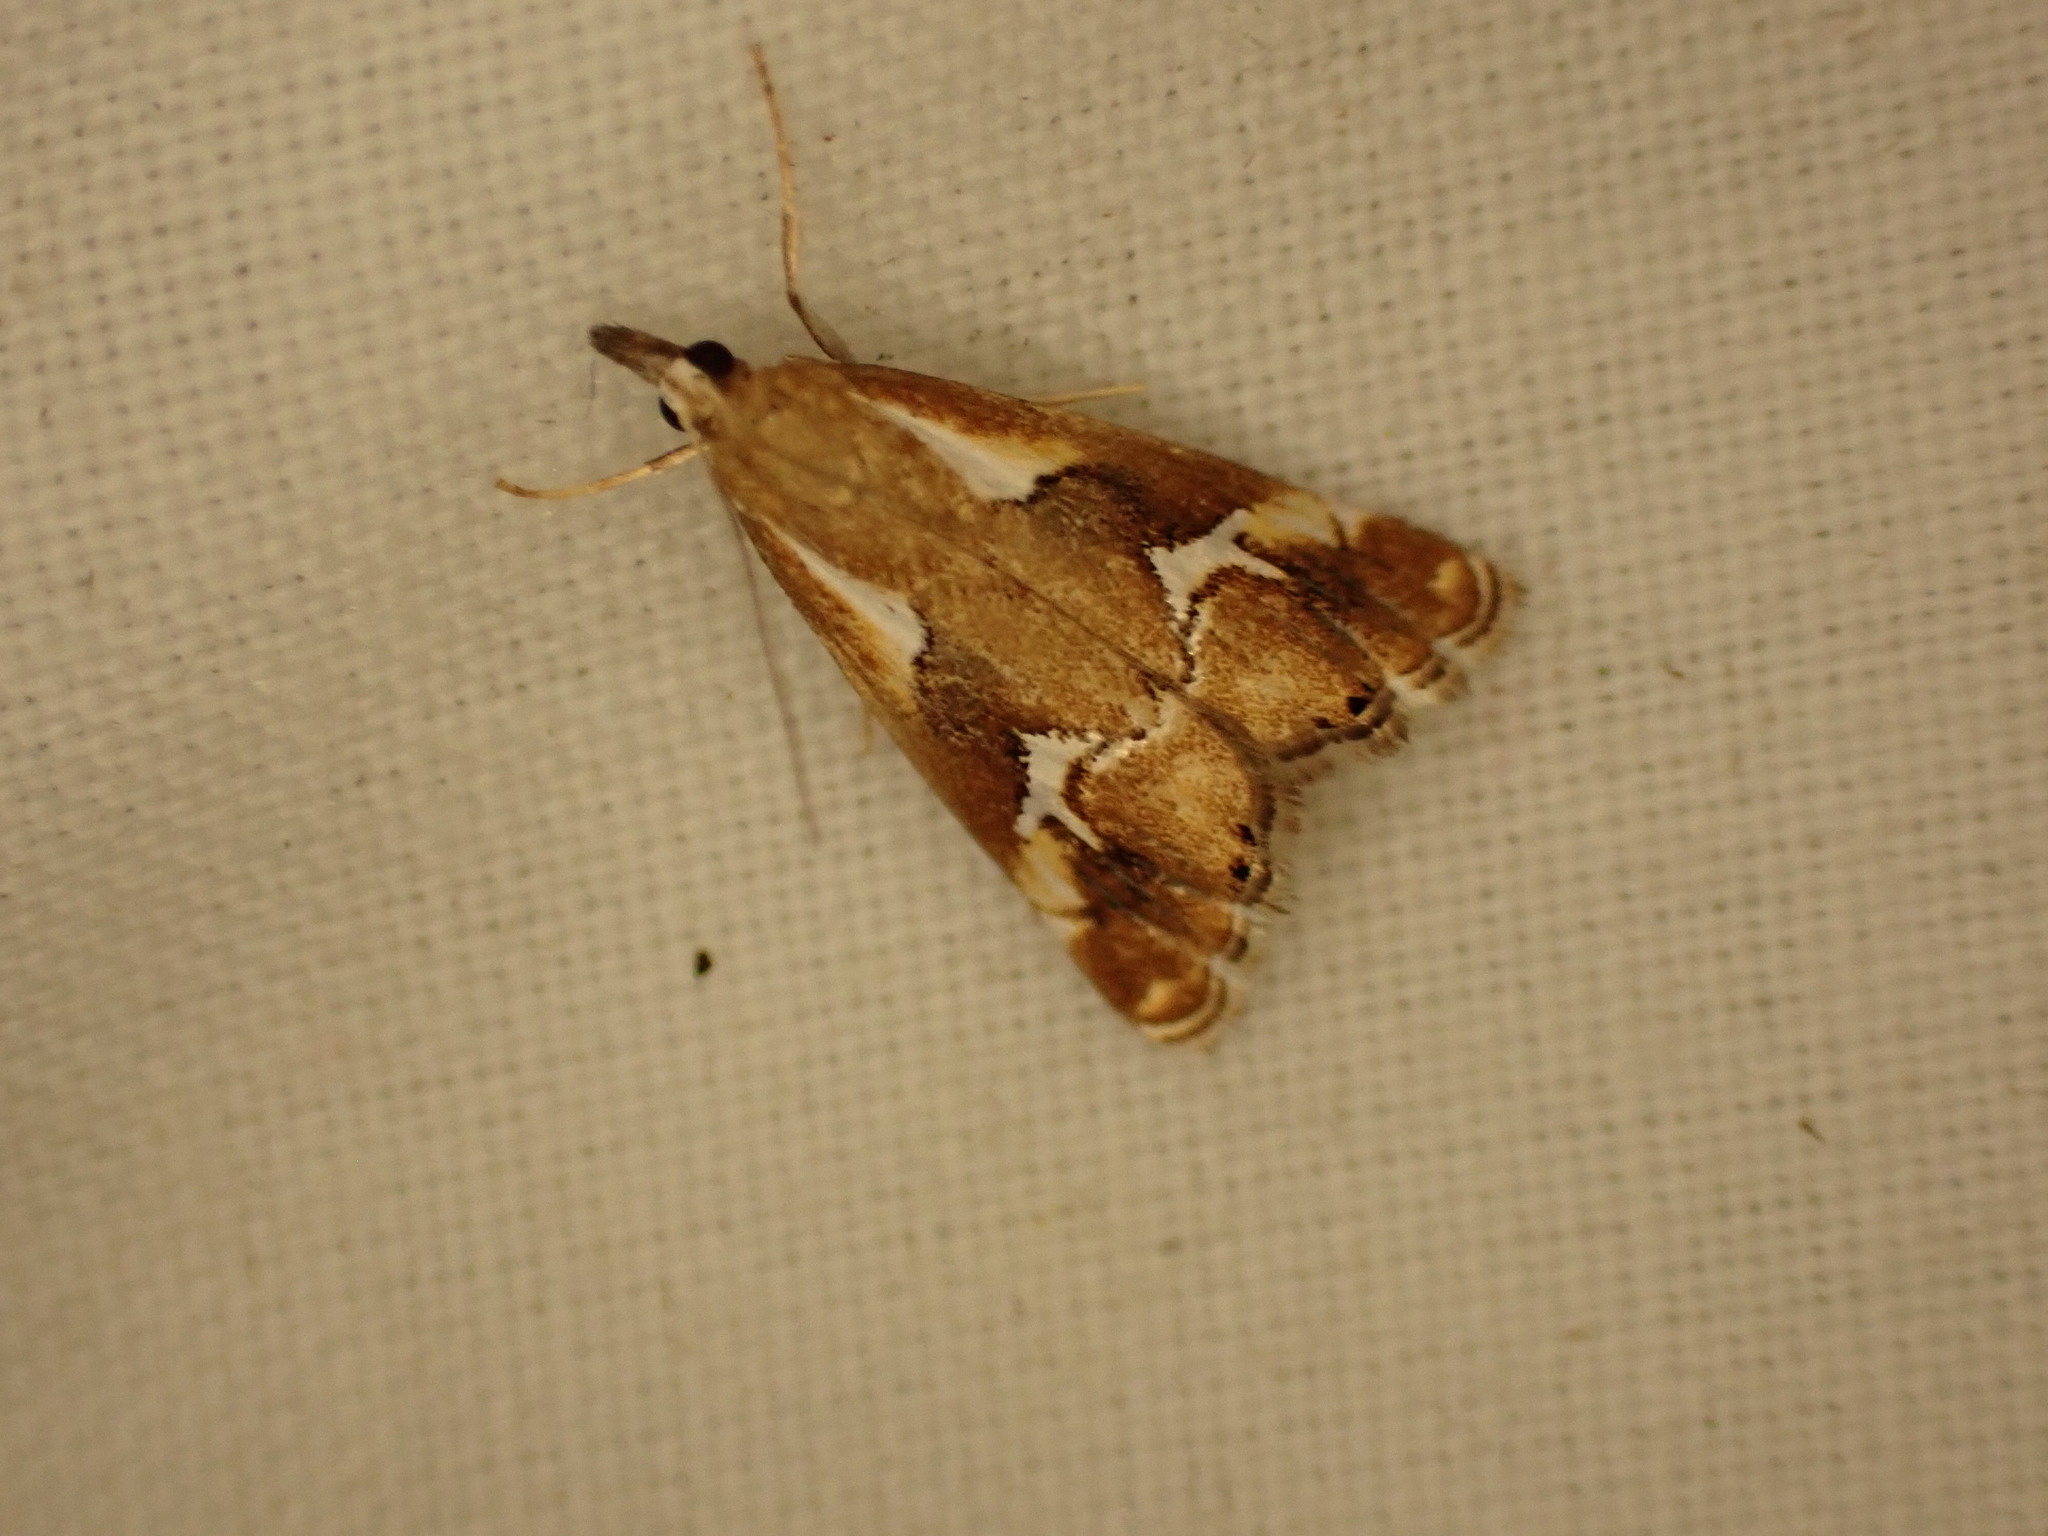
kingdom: Animalia
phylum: Arthropoda
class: Insecta
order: Lepidoptera
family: Crambidae
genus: Glaucocharis
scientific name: Glaucocharis interruptus
